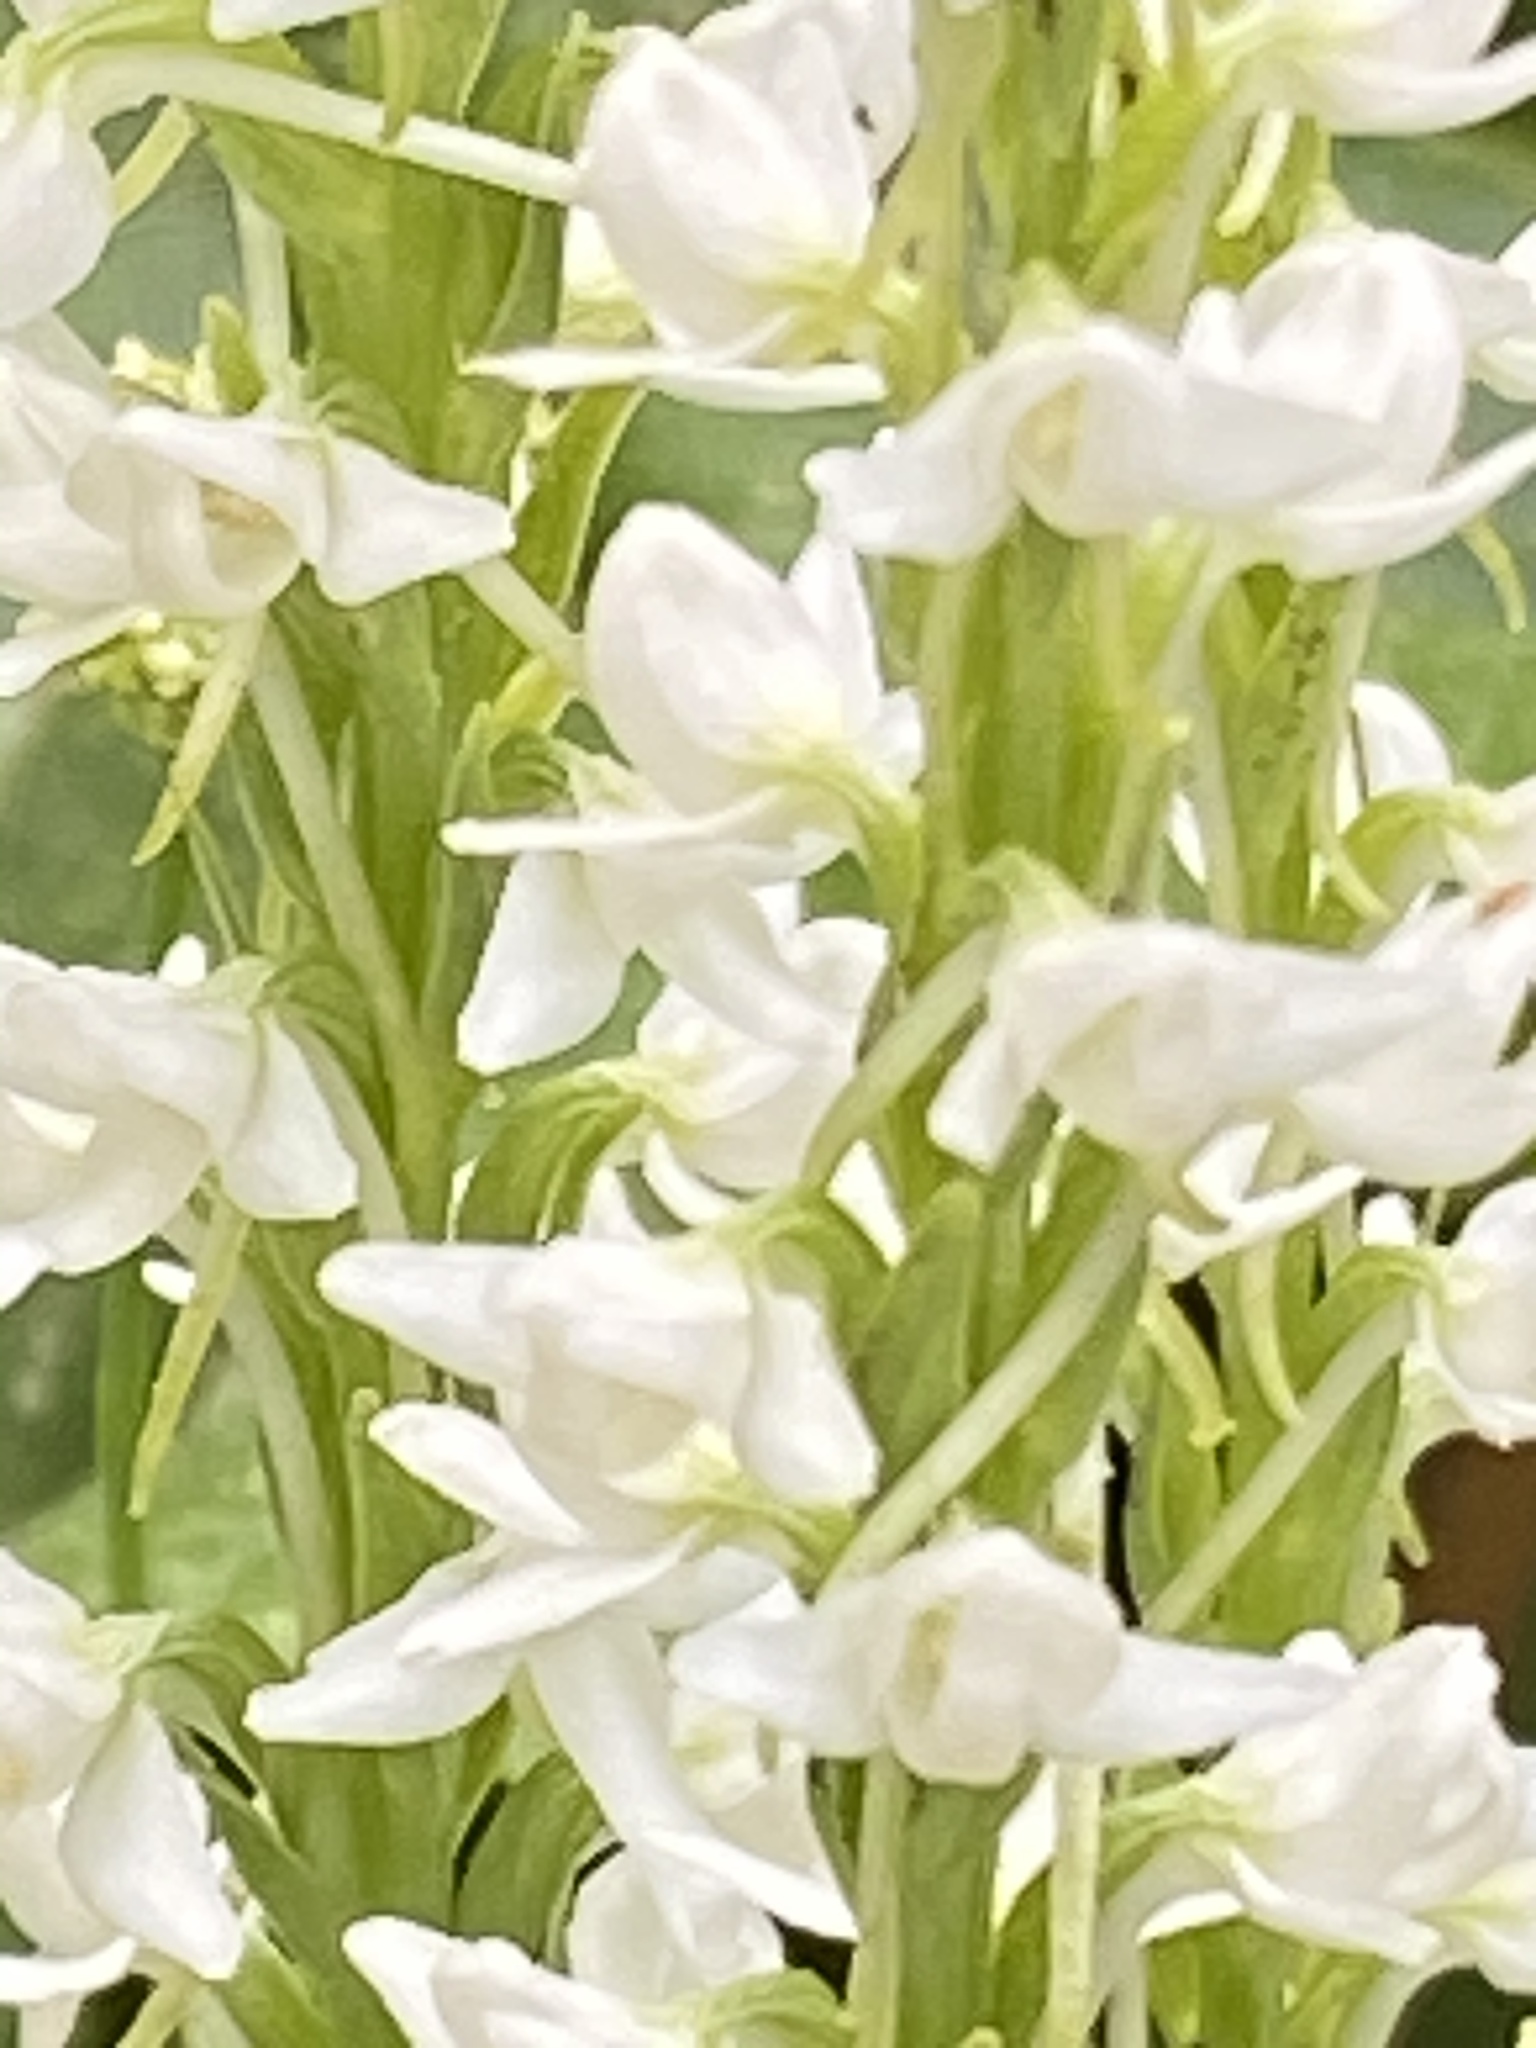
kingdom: Plantae
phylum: Tracheophyta
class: Liliopsida
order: Asparagales
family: Orchidaceae
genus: Platanthera
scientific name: Platanthera dilatata
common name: Bog candles
